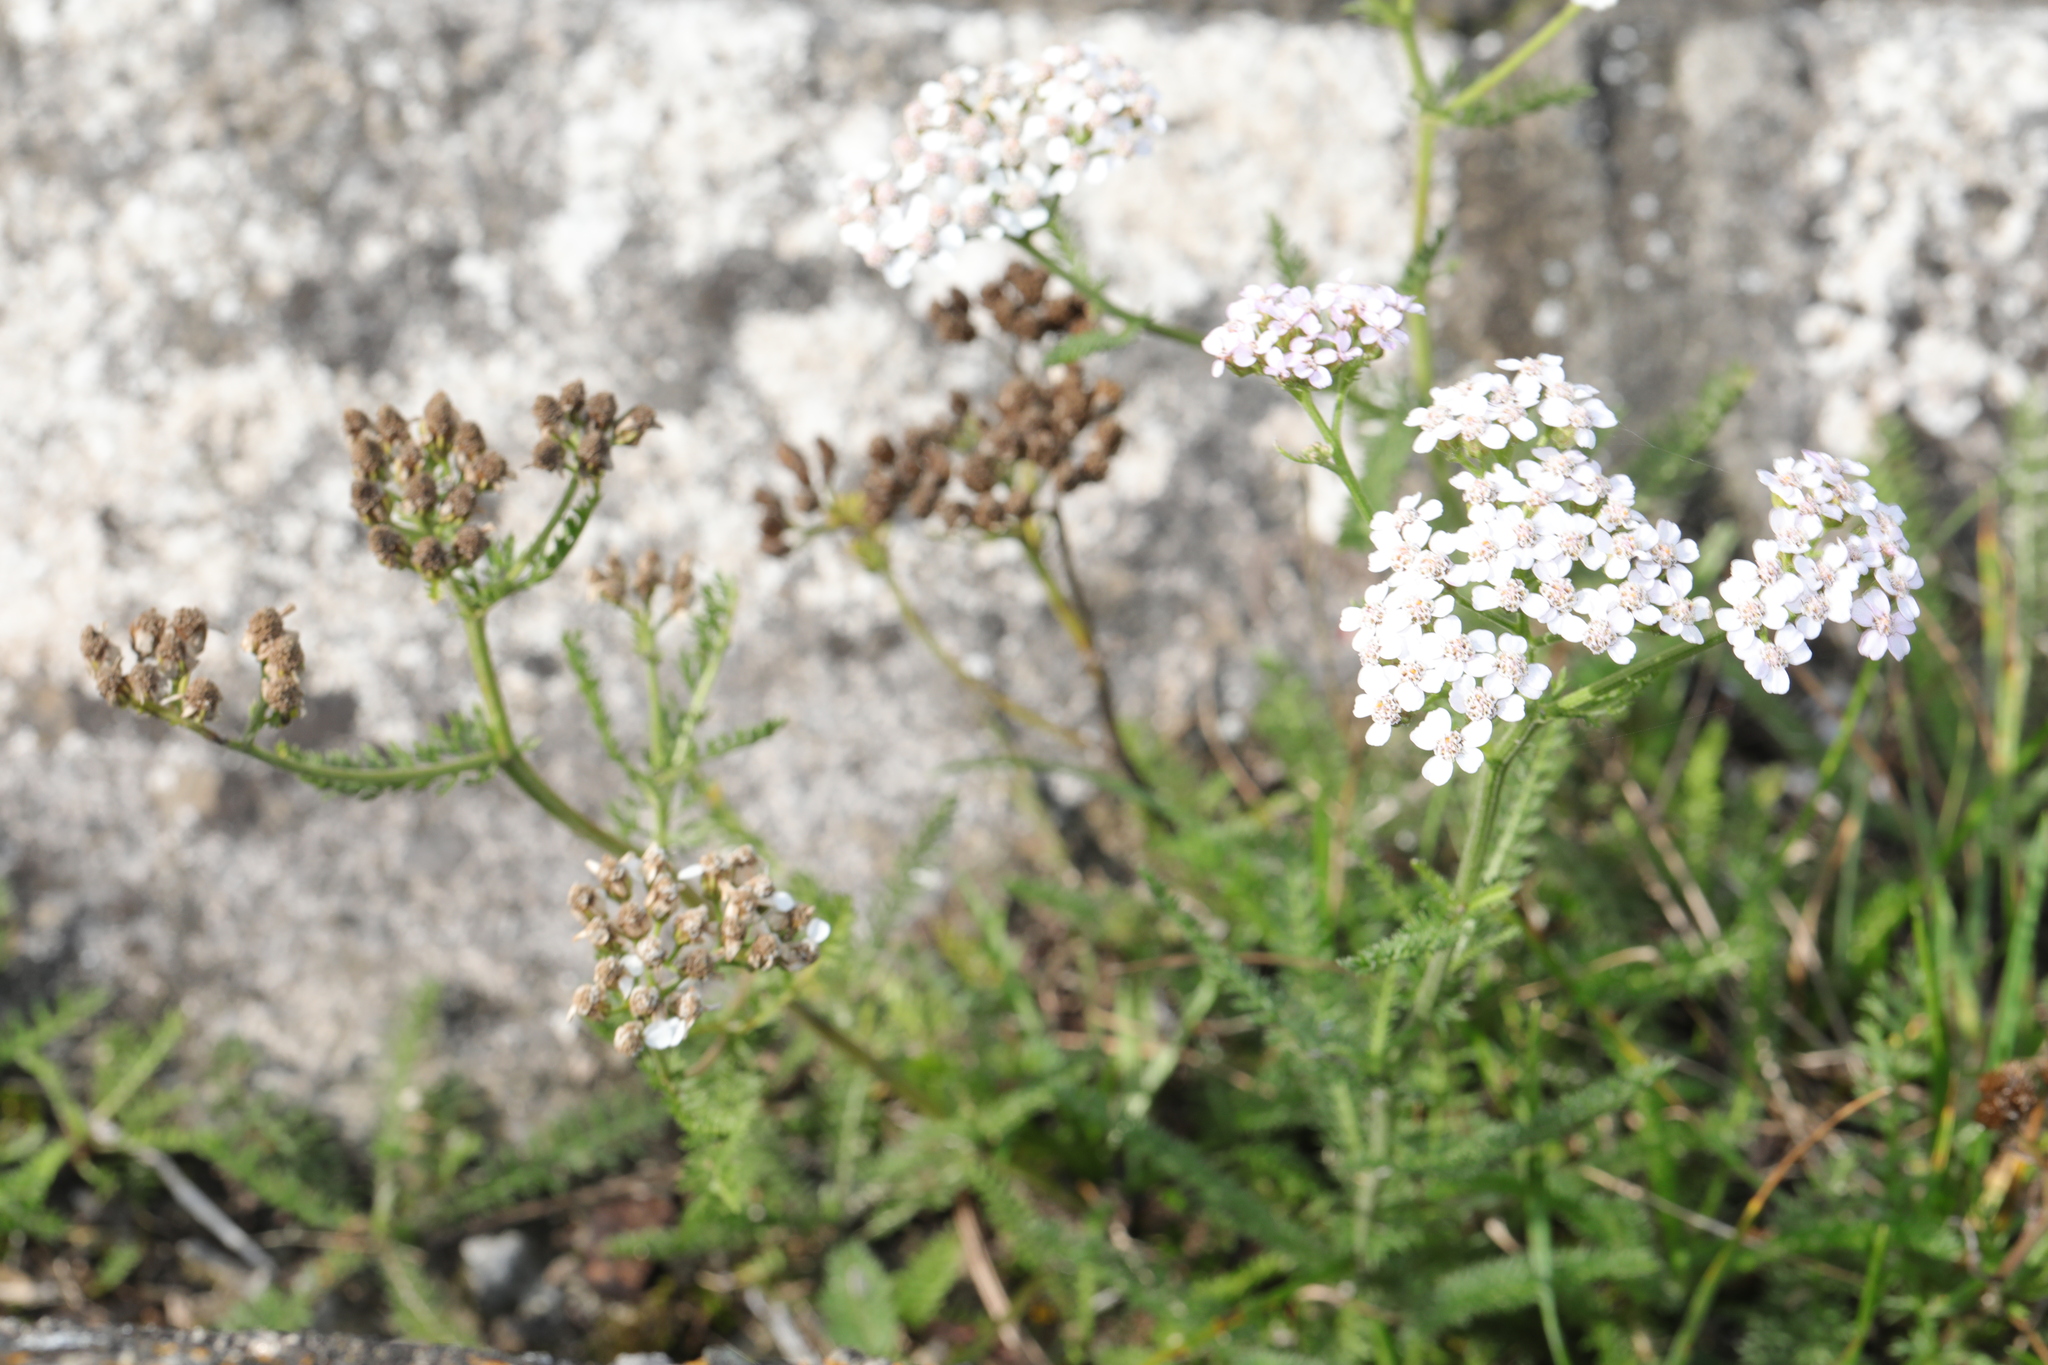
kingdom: Plantae
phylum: Tracheophyta
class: Magnoliopsida
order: Asterales
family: Asteraceae
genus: Achillea
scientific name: Achillea millefolium
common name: Yarrow
